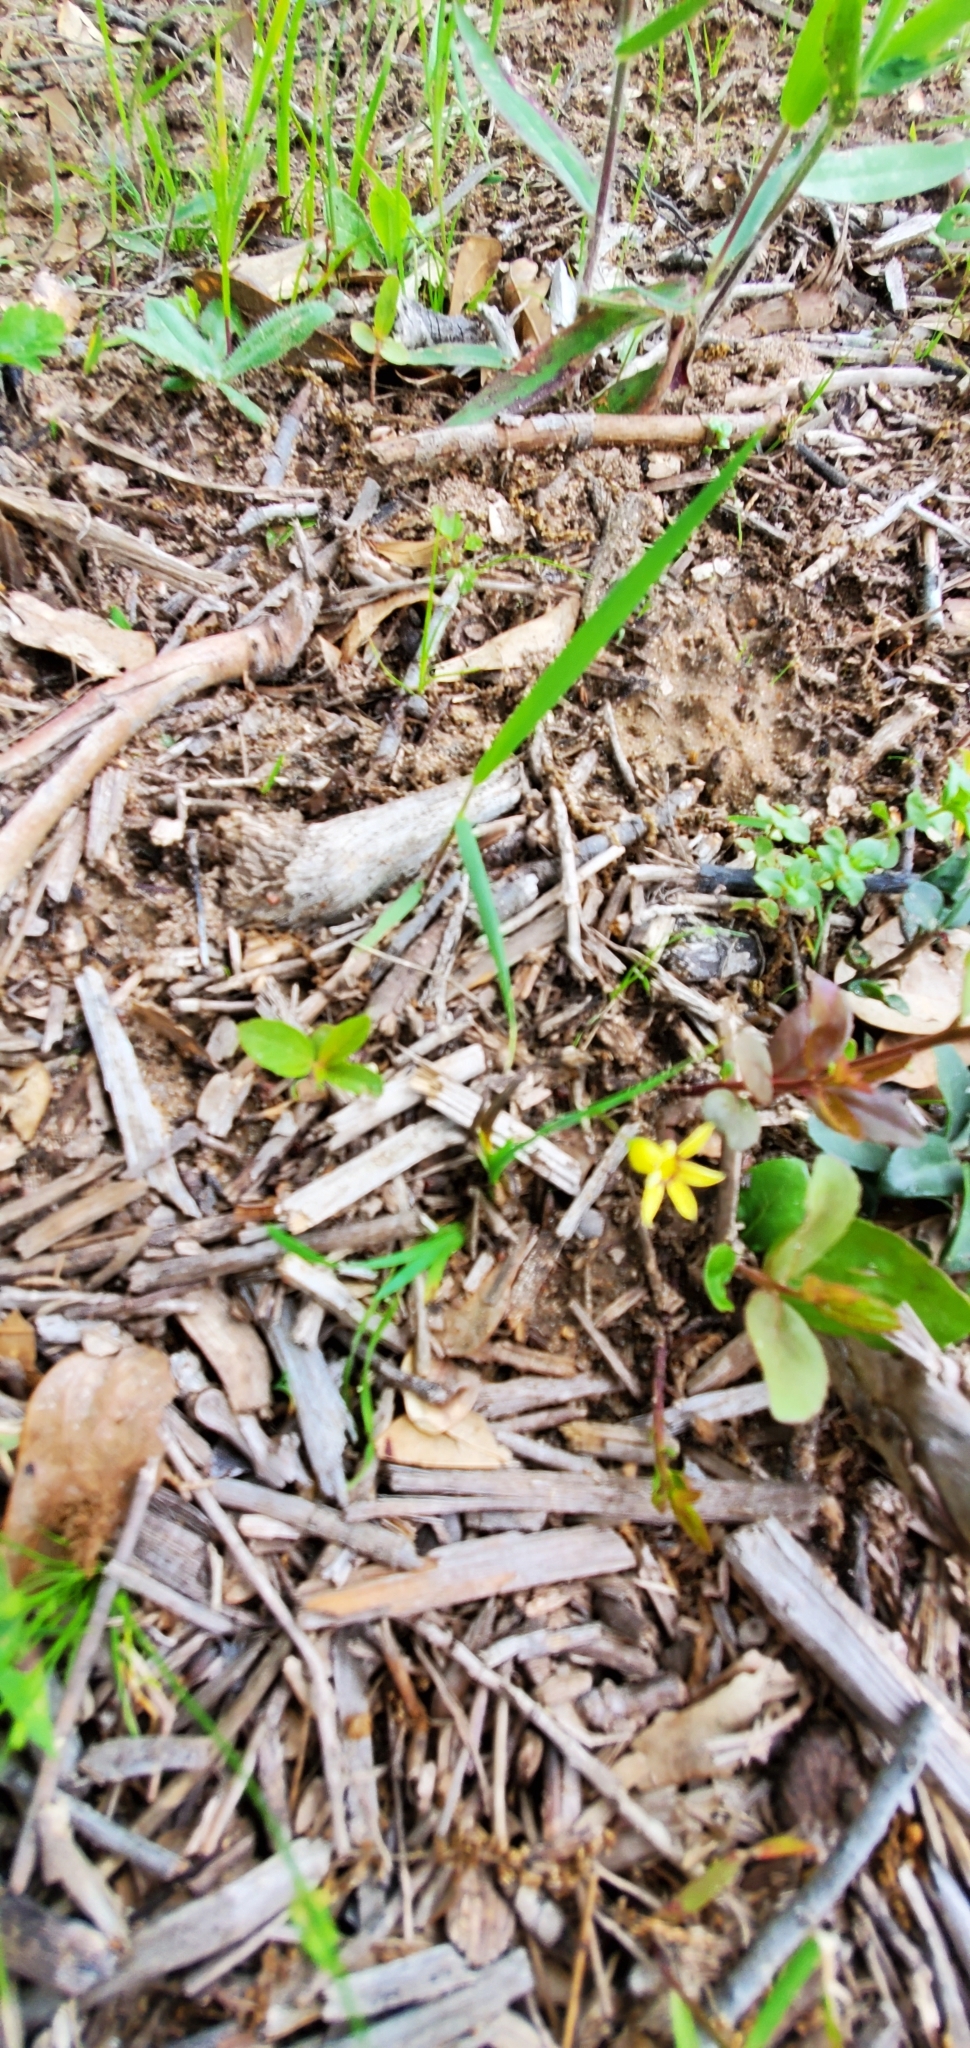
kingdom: Plantae
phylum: Tracheophyta
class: Liliopsida
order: Asparagales
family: Iridaceae
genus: Sisyrinchium
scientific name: Sisyrinchium micranthum
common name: Bermuda pigroot
